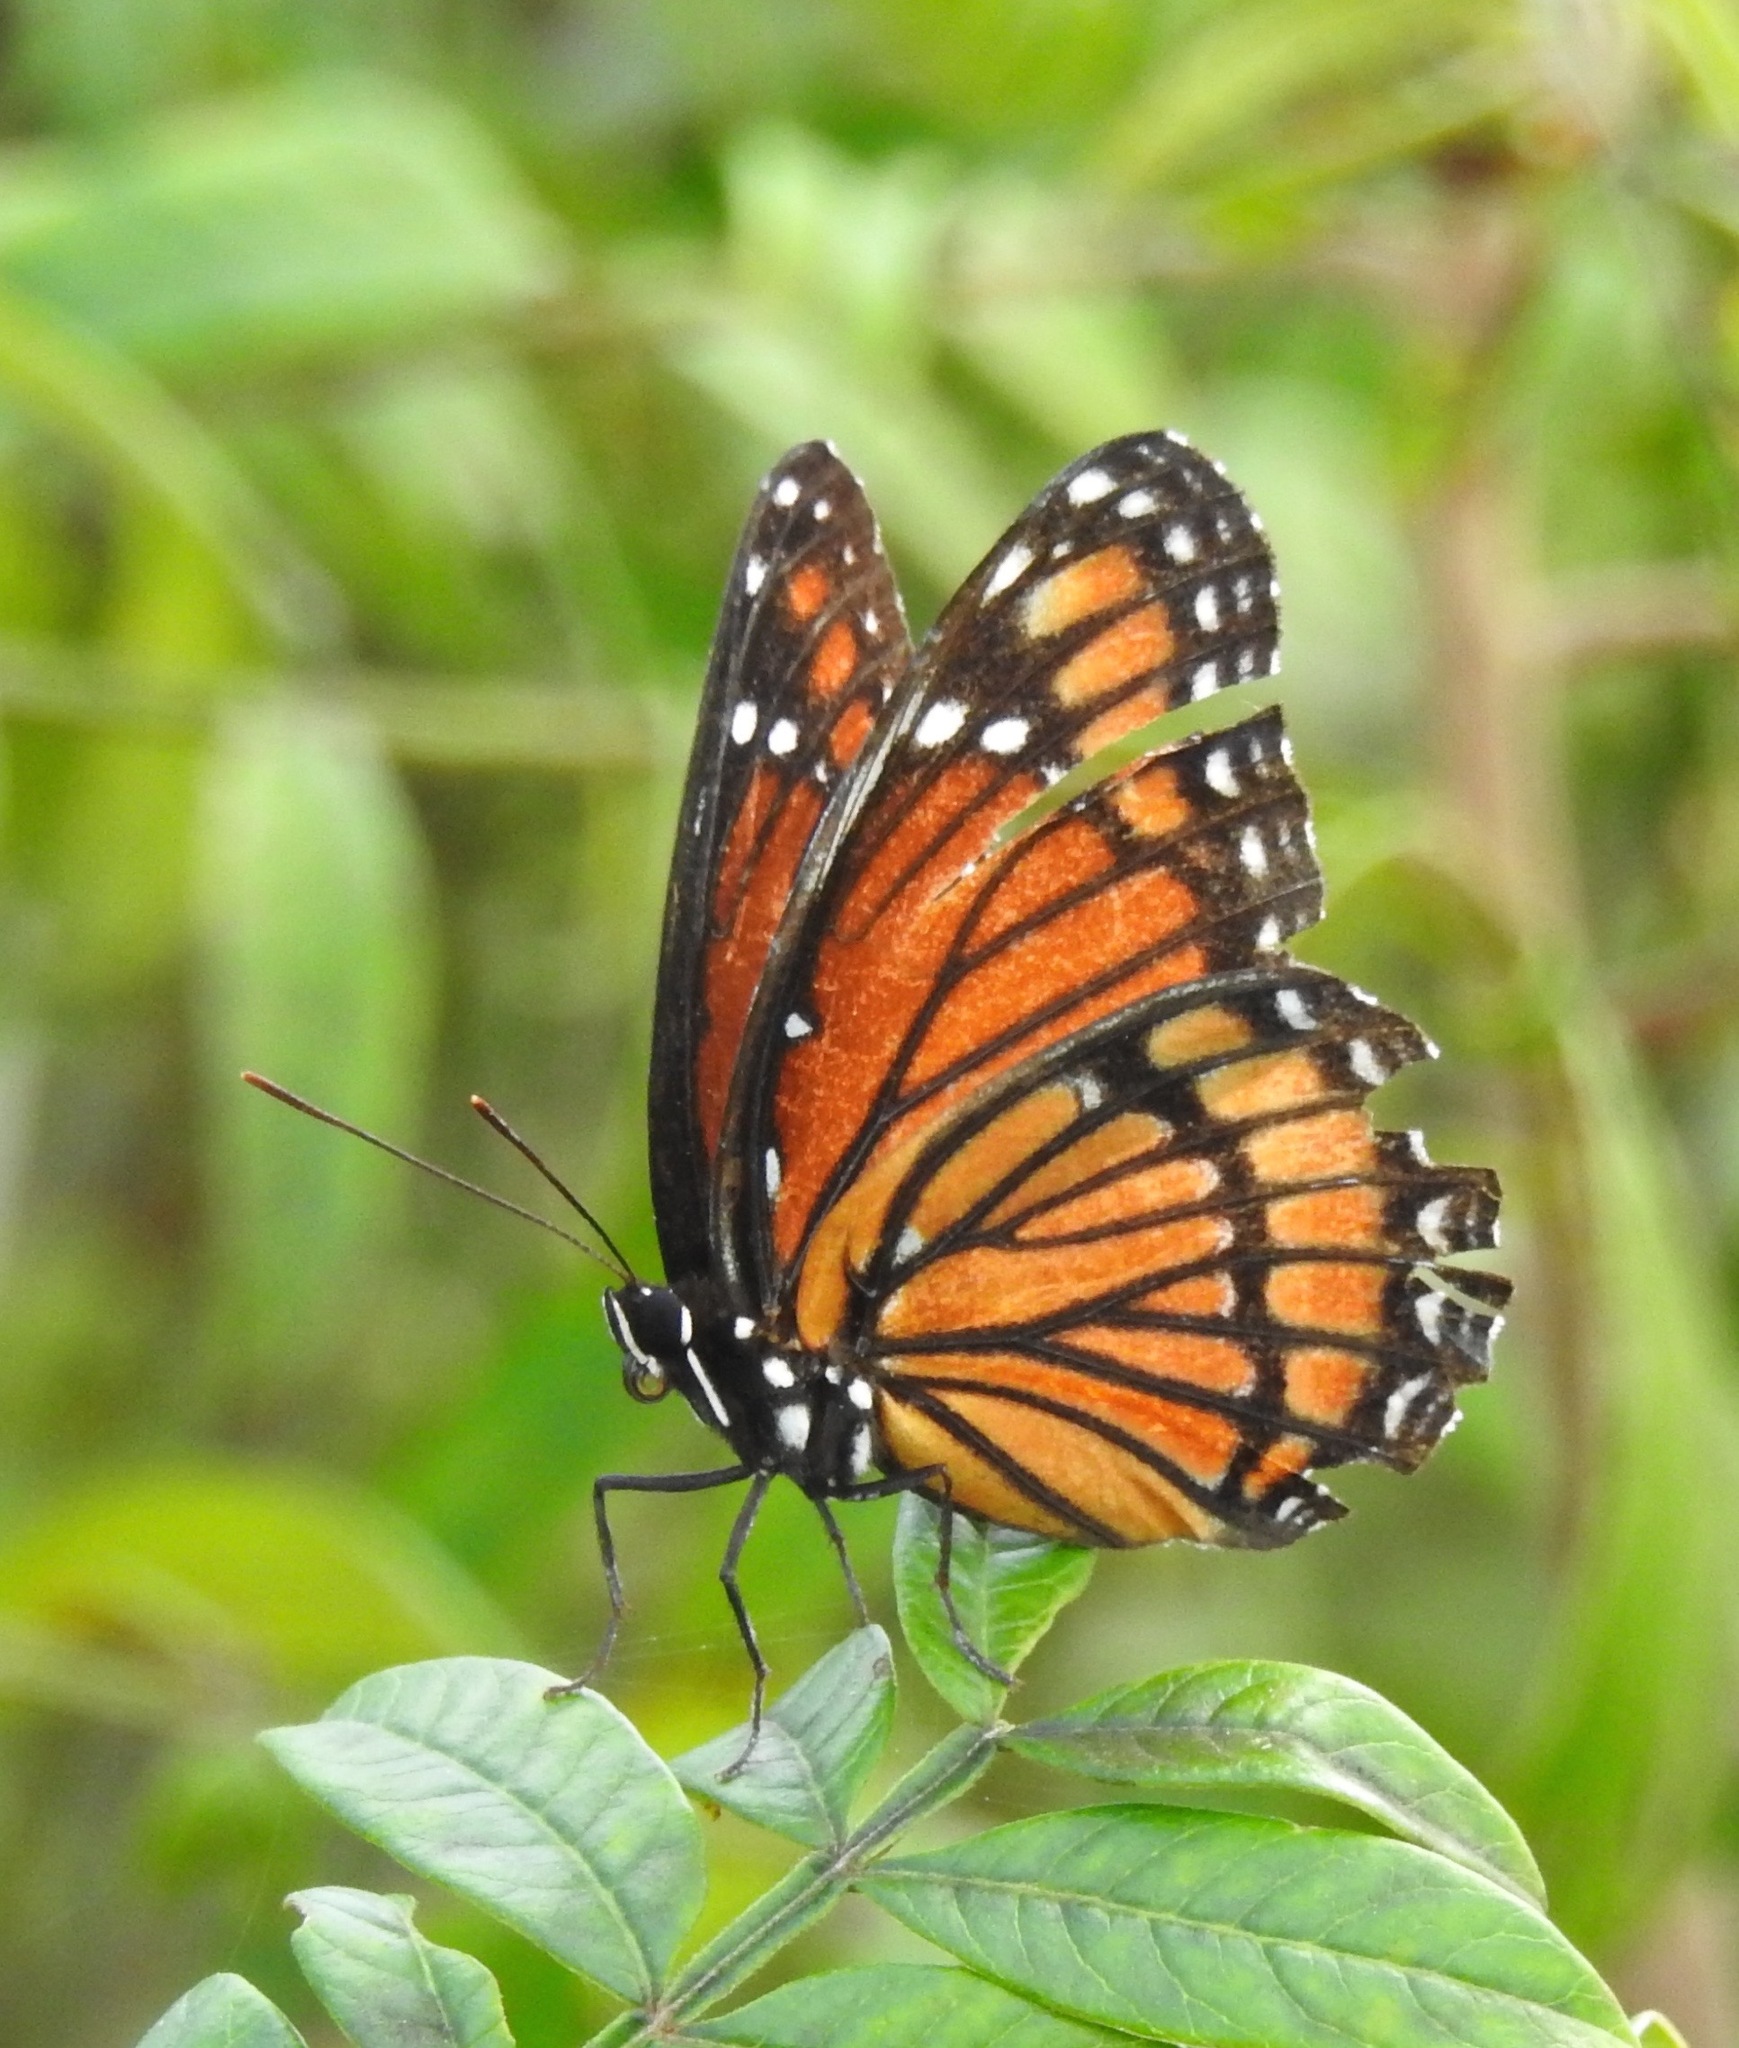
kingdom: Animalia
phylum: Arthropoda
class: Insecta
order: Lepidoptera
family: Nymphalidae
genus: Limenitis
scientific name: Limenitis archippus
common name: Viceroy
